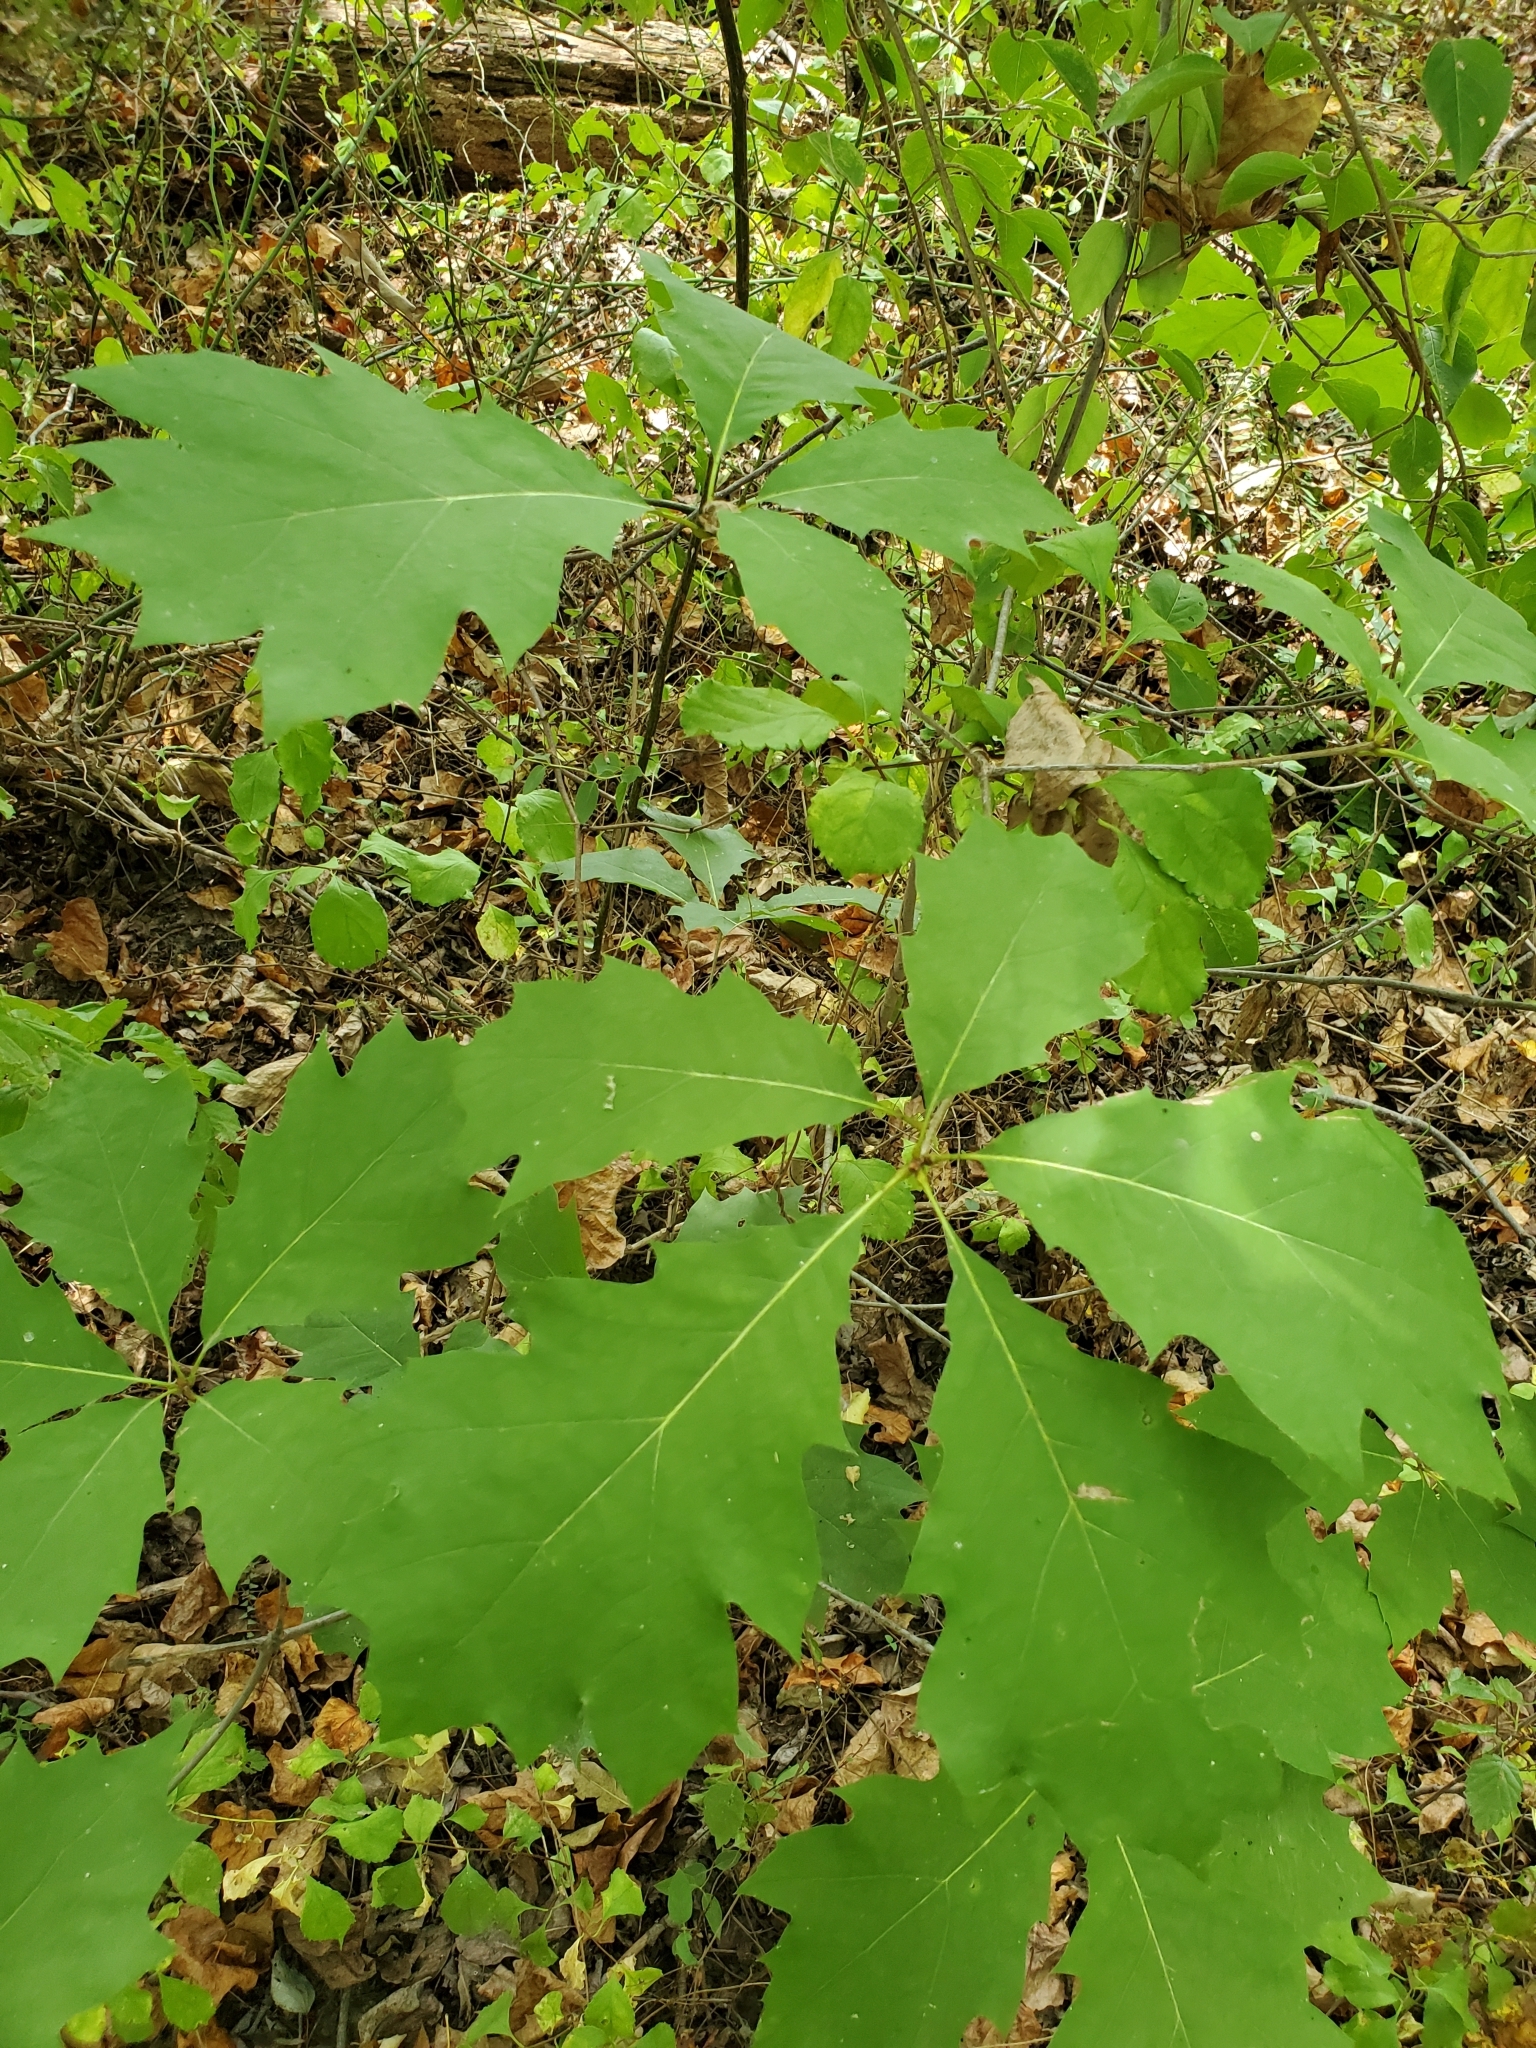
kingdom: Plantae
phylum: Tracheophyta
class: Magnoliopsida
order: Fagales
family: Fagaceae
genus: Quercus
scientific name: Quercus rubra
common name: Red oak
